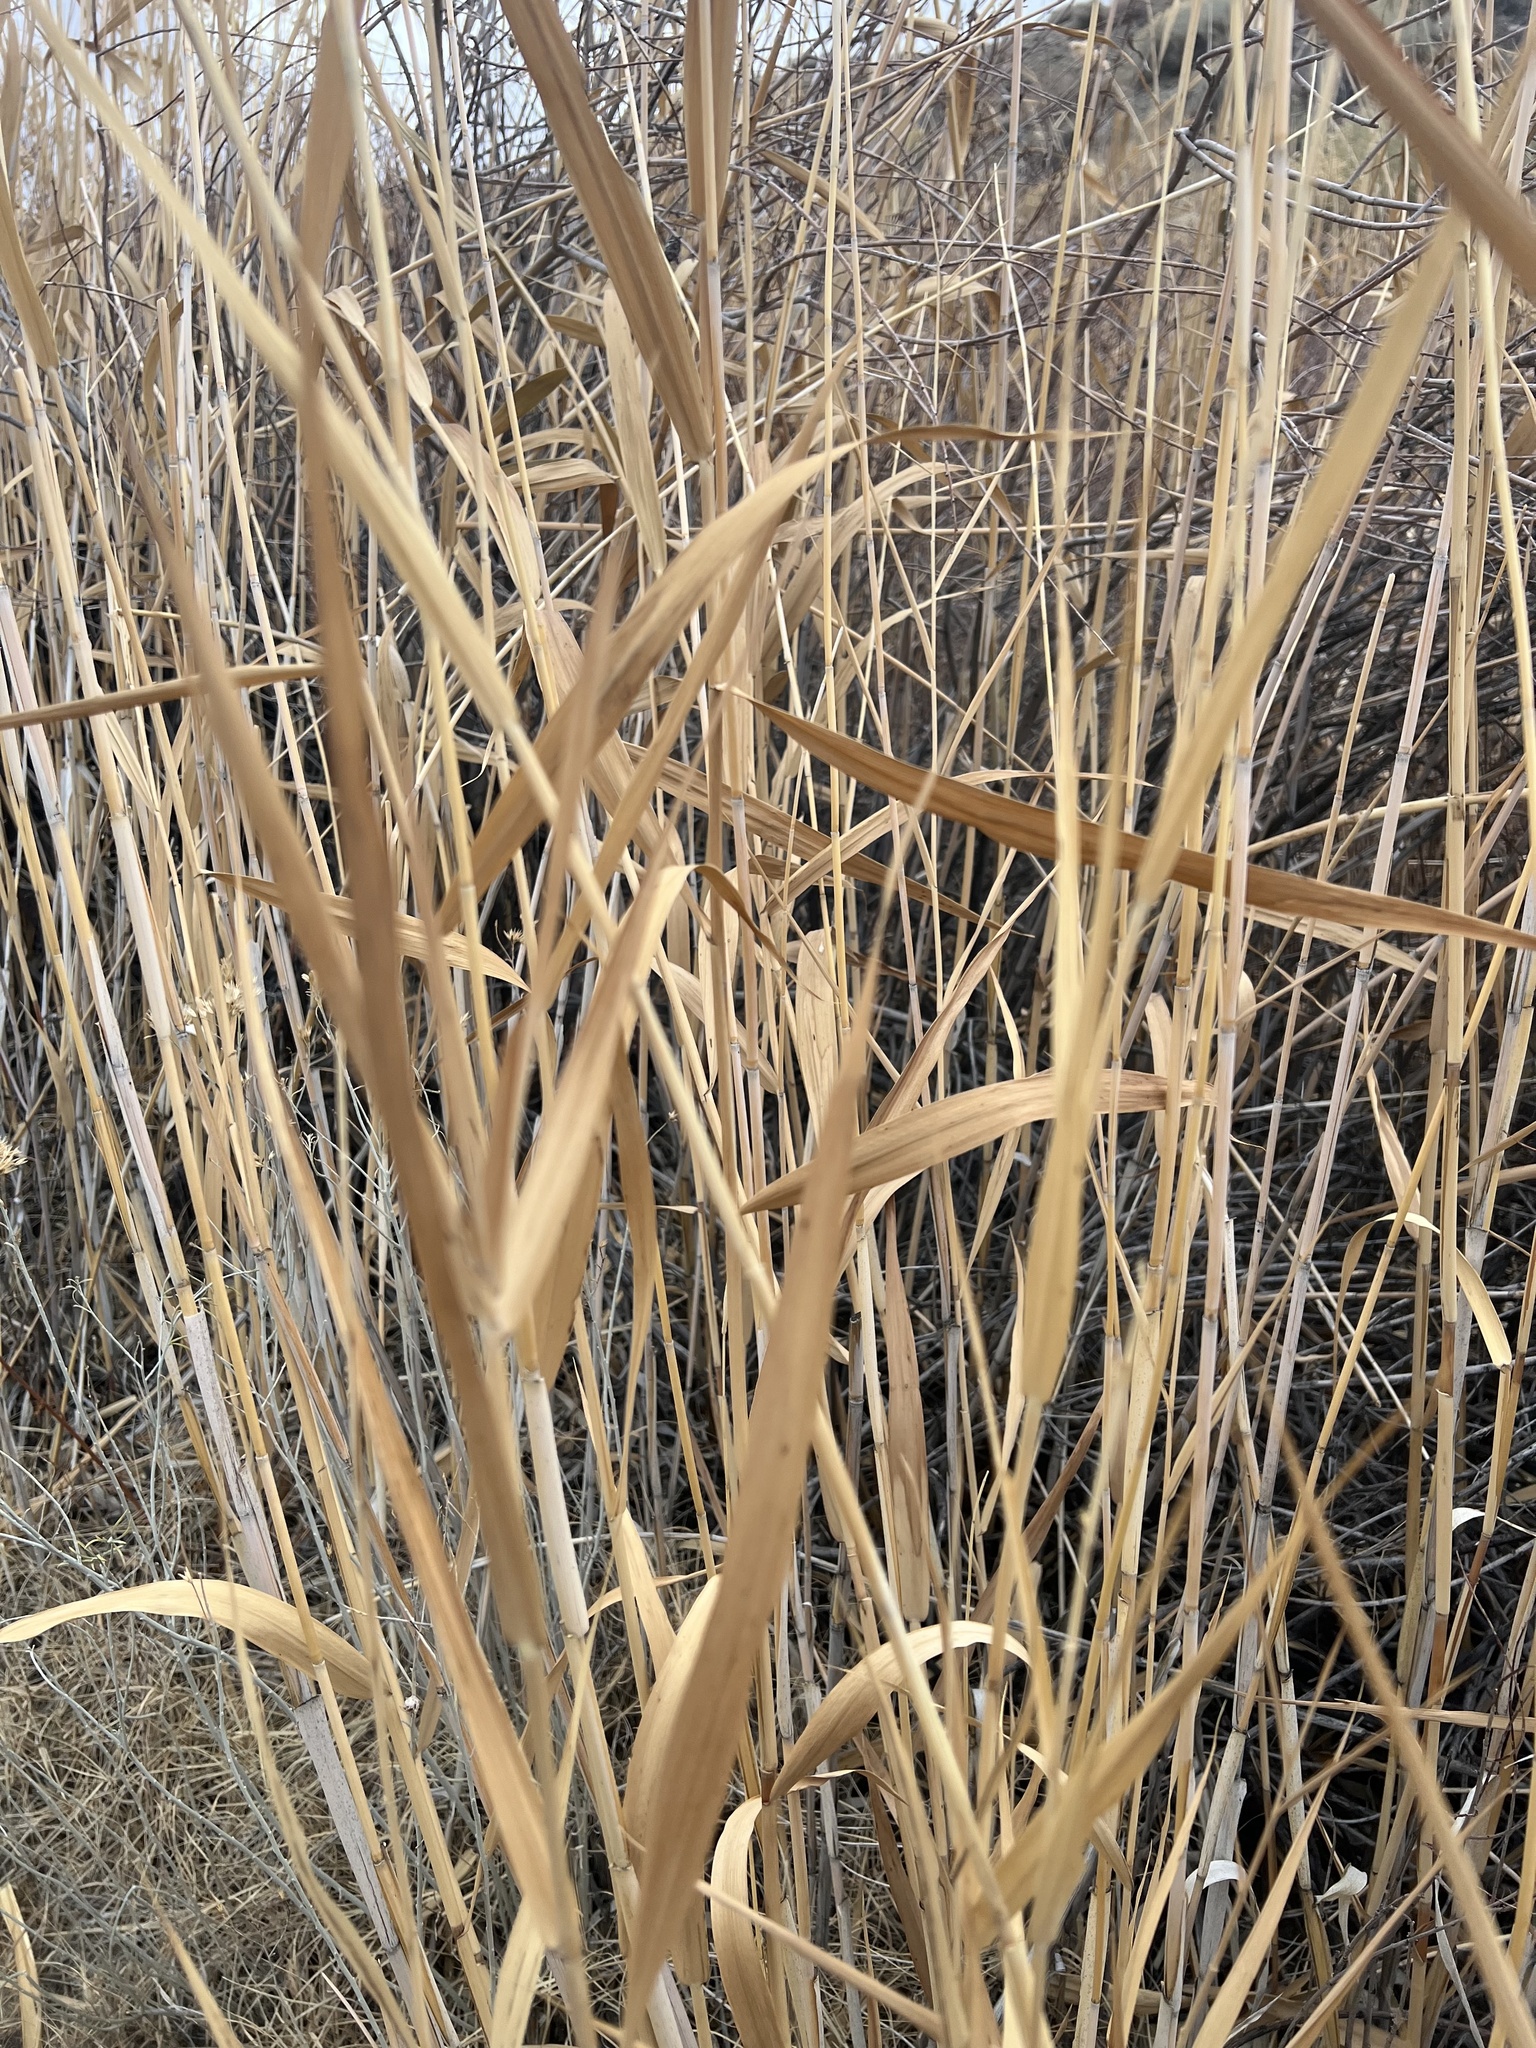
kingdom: Plantae
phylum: Tracheophyta
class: Liliopsida
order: Poales
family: Poaceae
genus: Phragmites
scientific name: Phragmites australis
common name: Common reed
